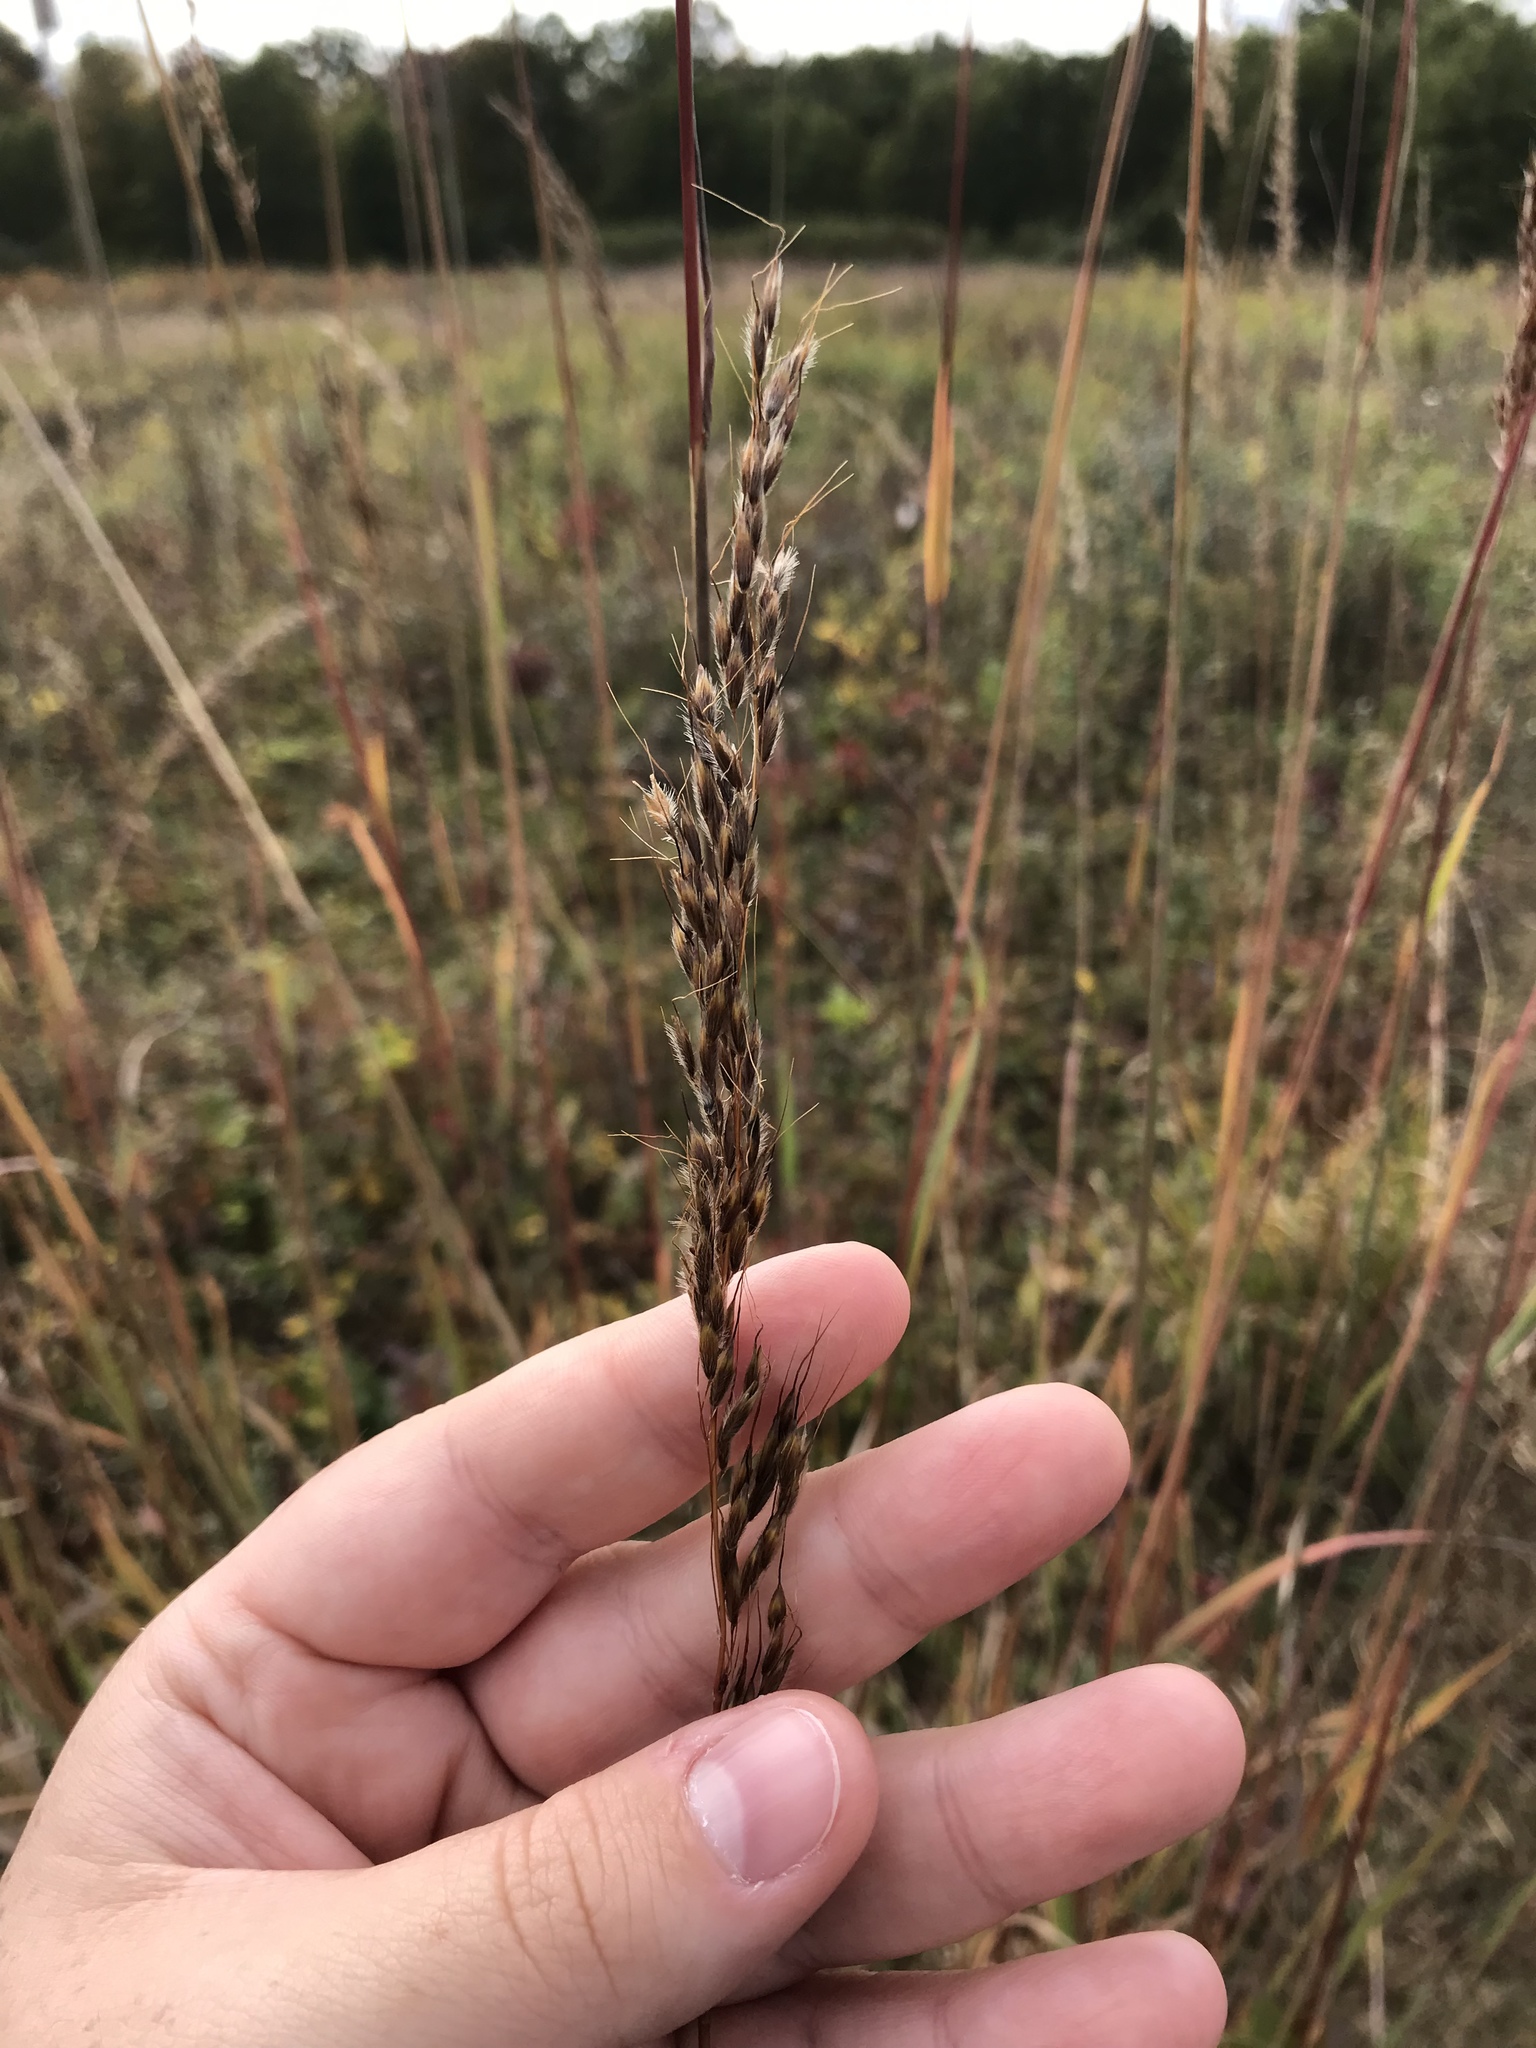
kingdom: Plantae
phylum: Tracheophyta
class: Liliopsida
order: Poales
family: Poaceae
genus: Sorghastrum
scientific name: Sorghastrum nutans
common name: Indian grass
